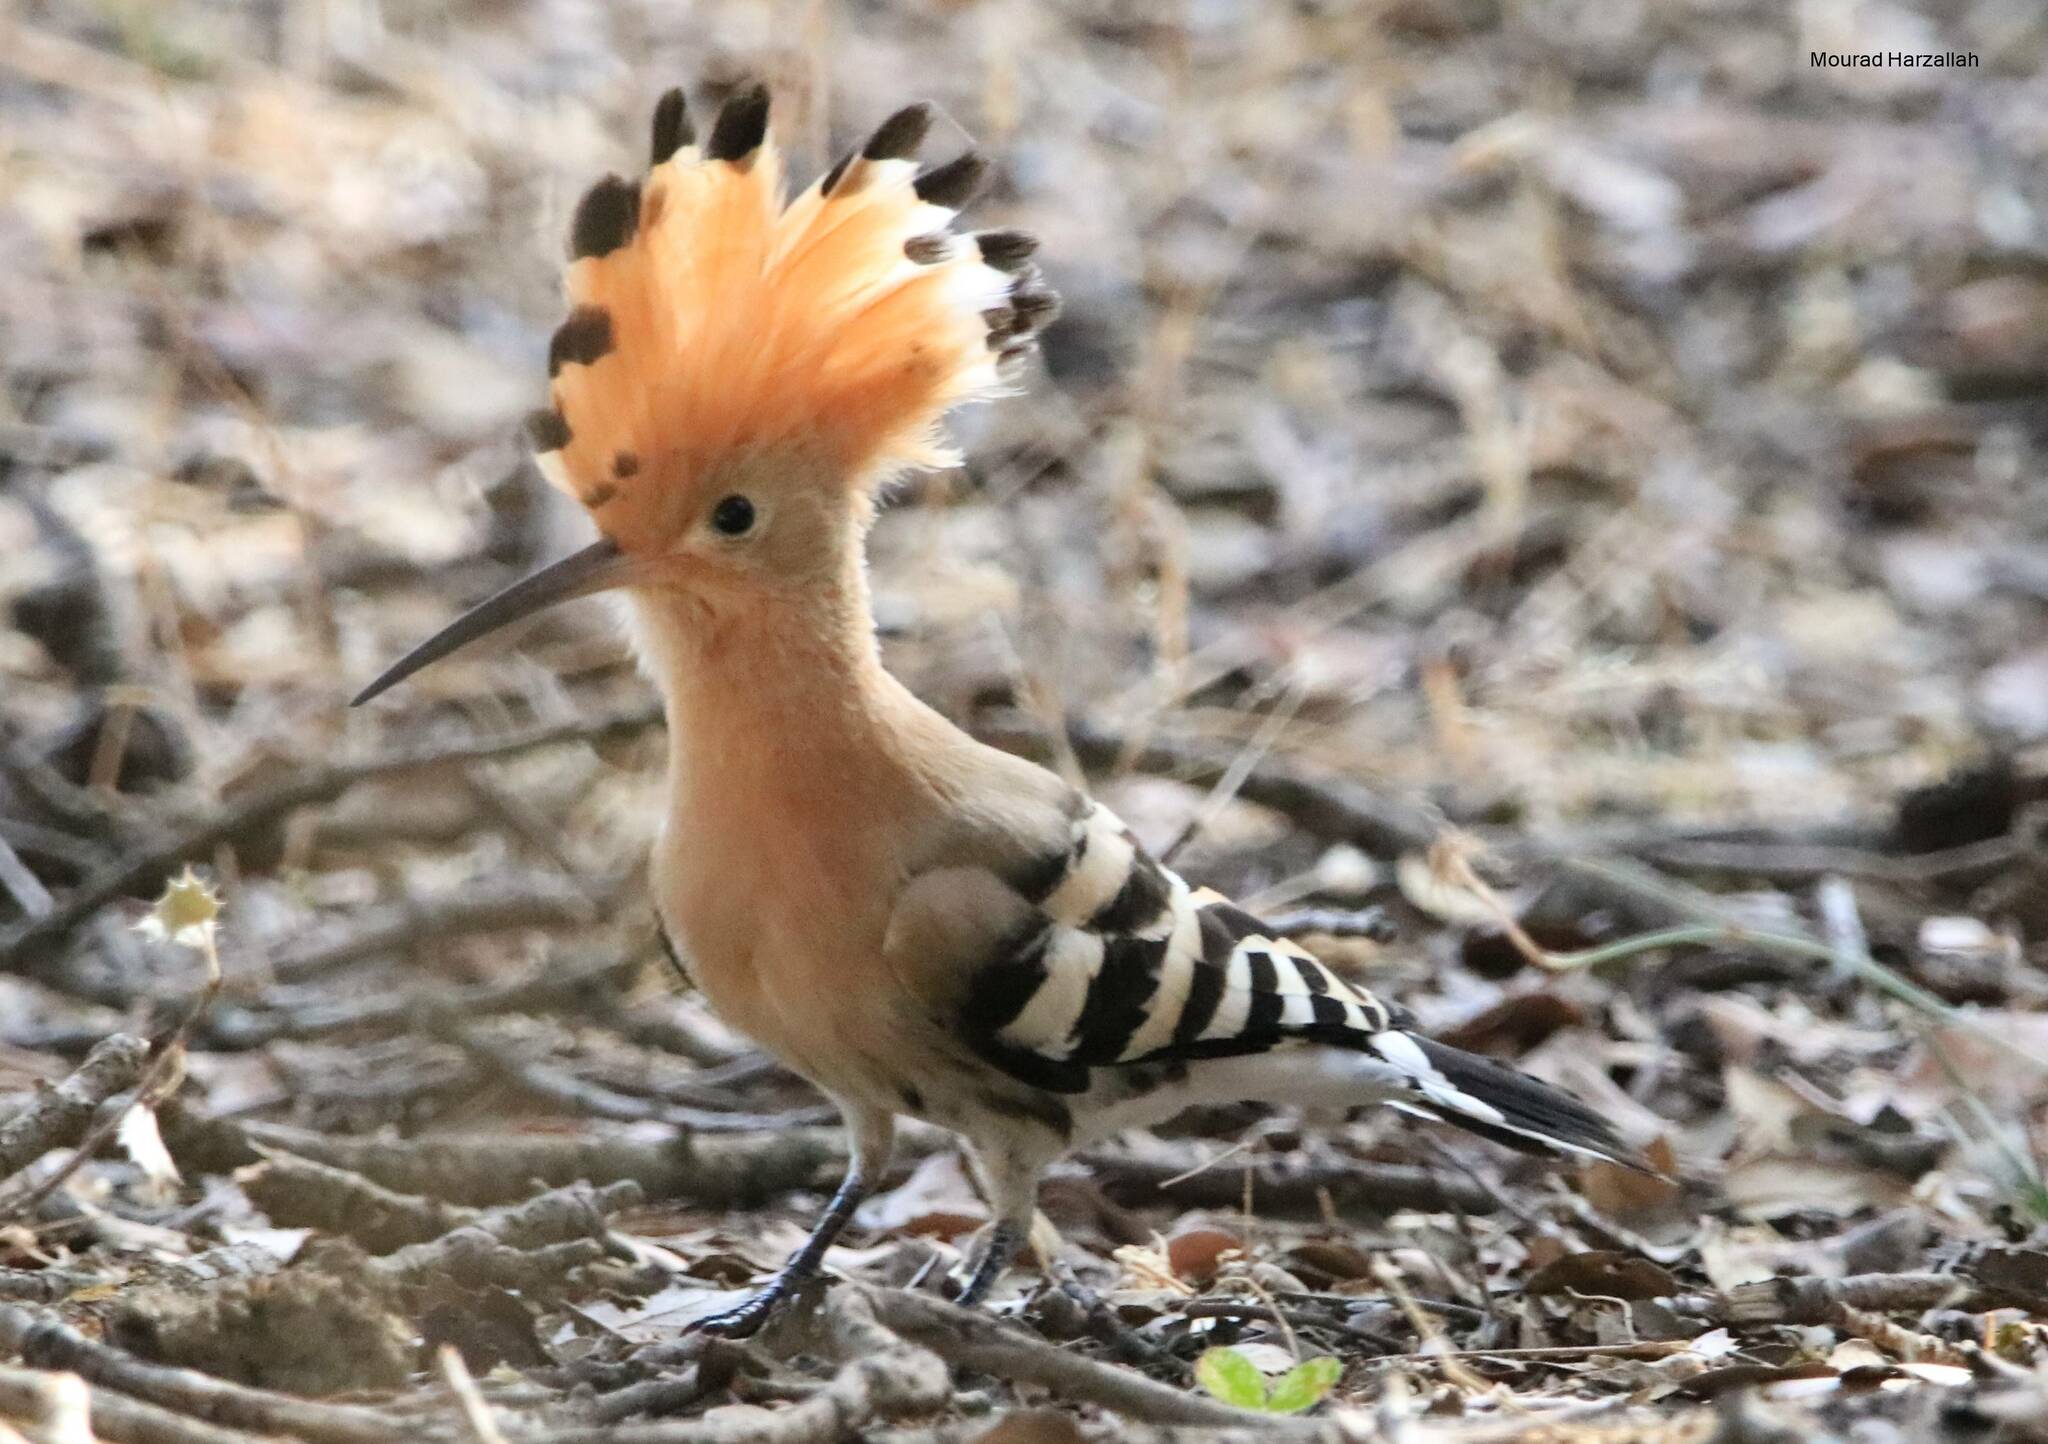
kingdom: Animalia
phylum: Chordata
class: Aves
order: Bucerotiformes
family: Upupidae
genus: Upupa
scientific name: Upupa epops
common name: Eurasian hoopoe
